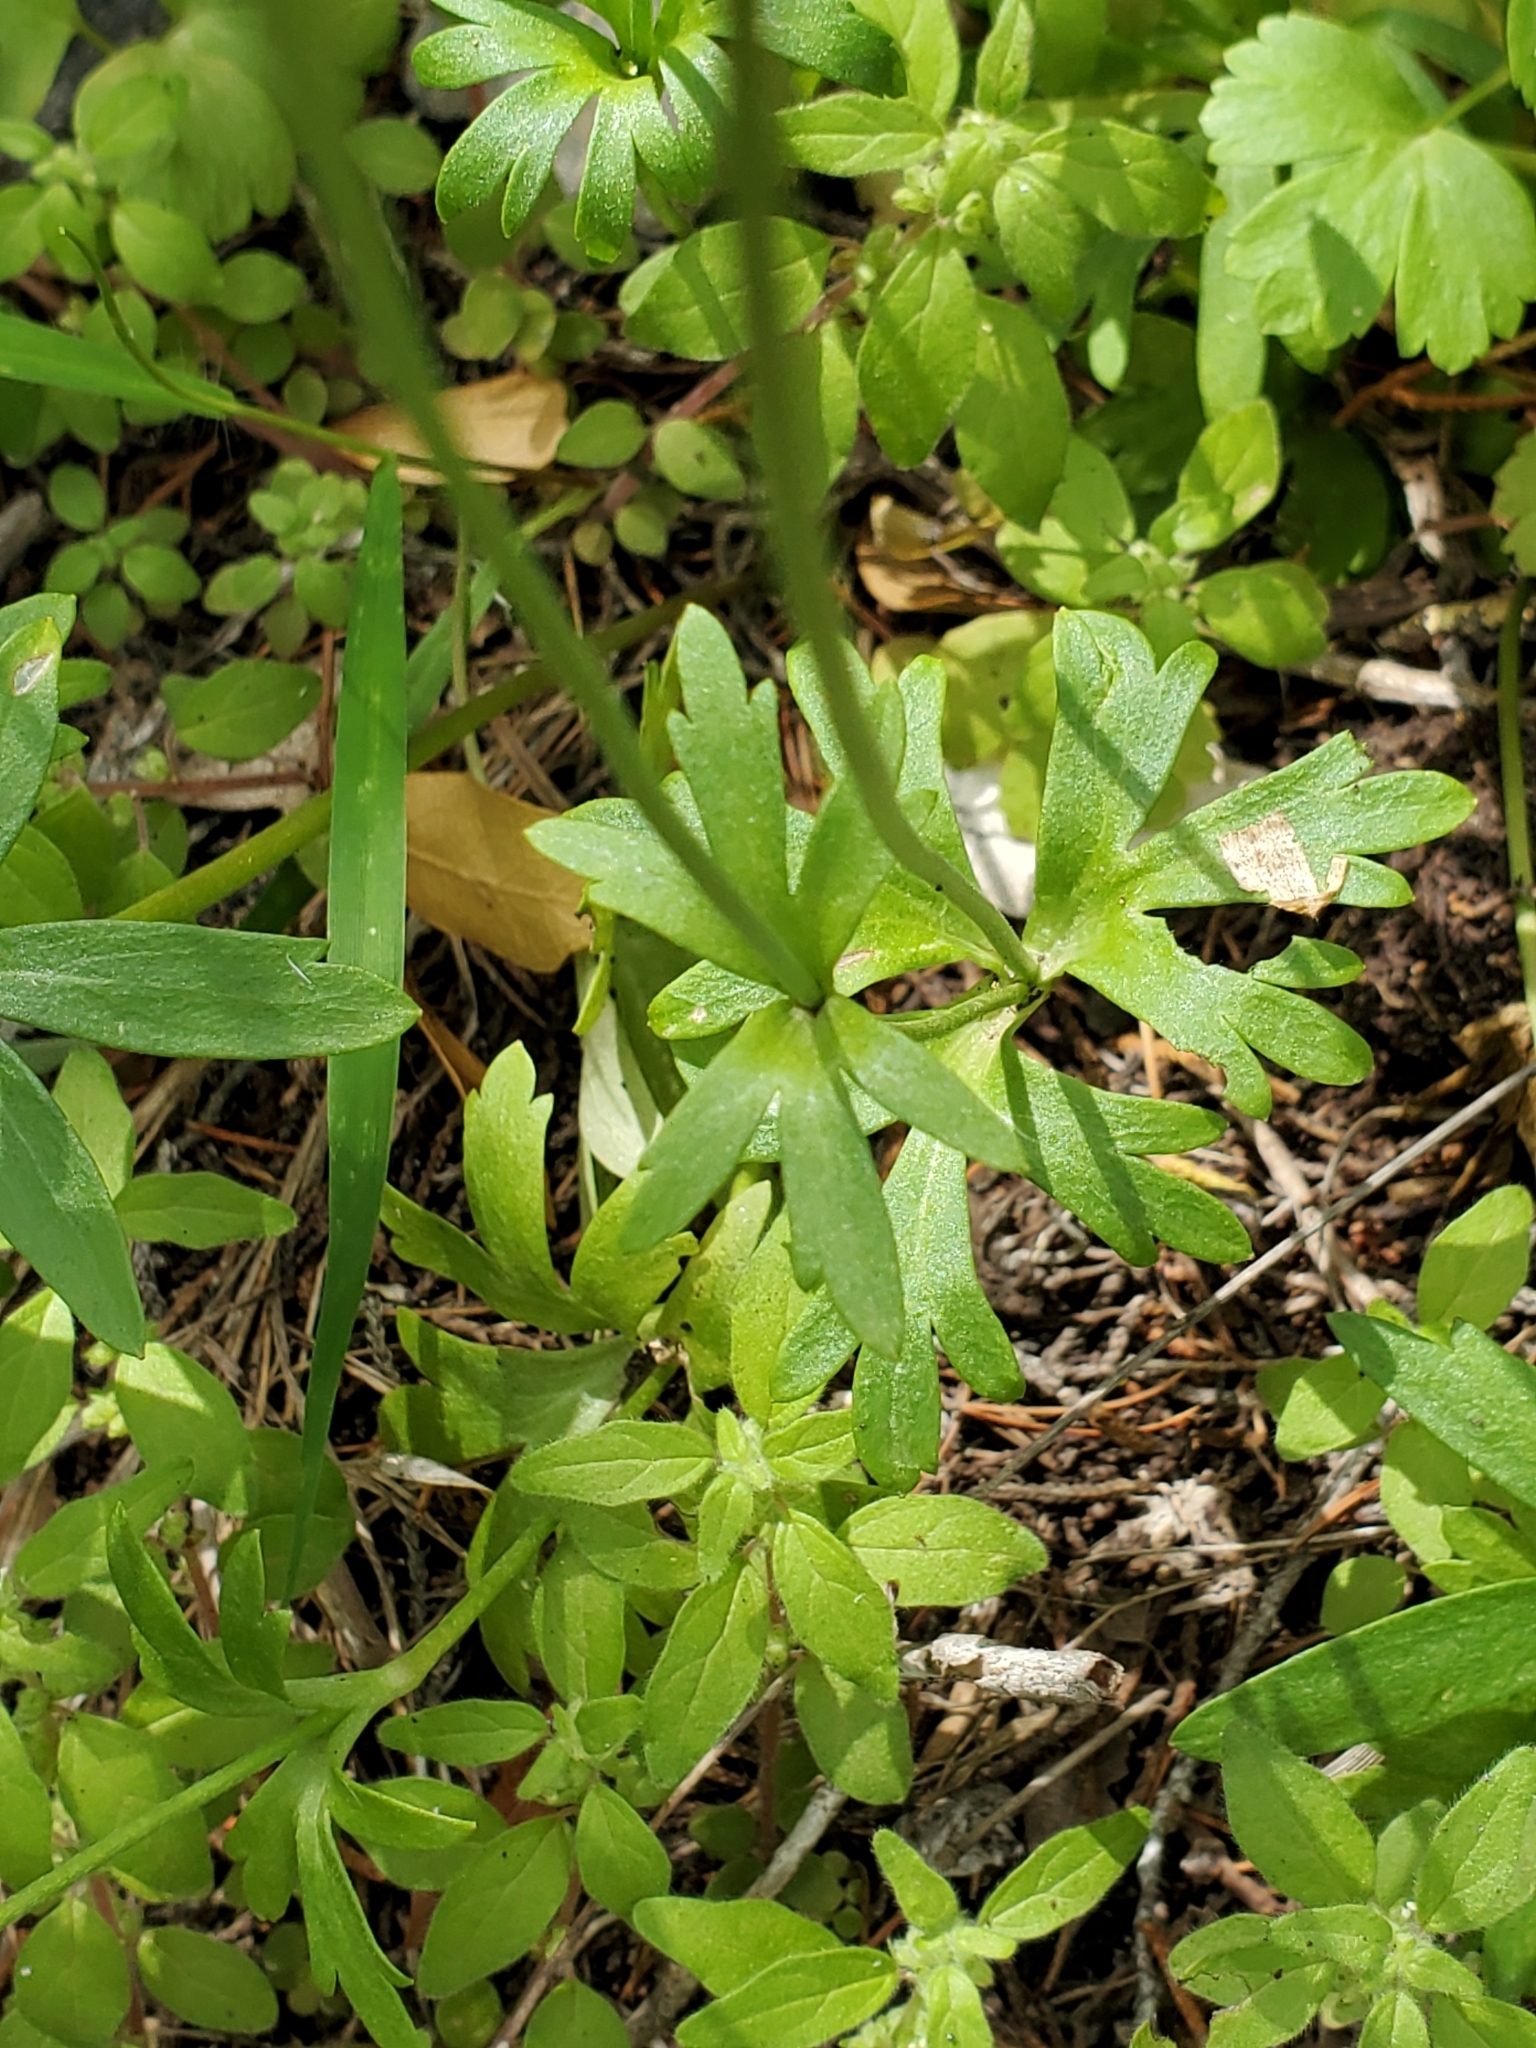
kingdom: Plantae
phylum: Tracheophyta
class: Magnoliopsida
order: Ranunculales
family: Ranunculaceae
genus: Anemone
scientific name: Anemone edwardsiana
